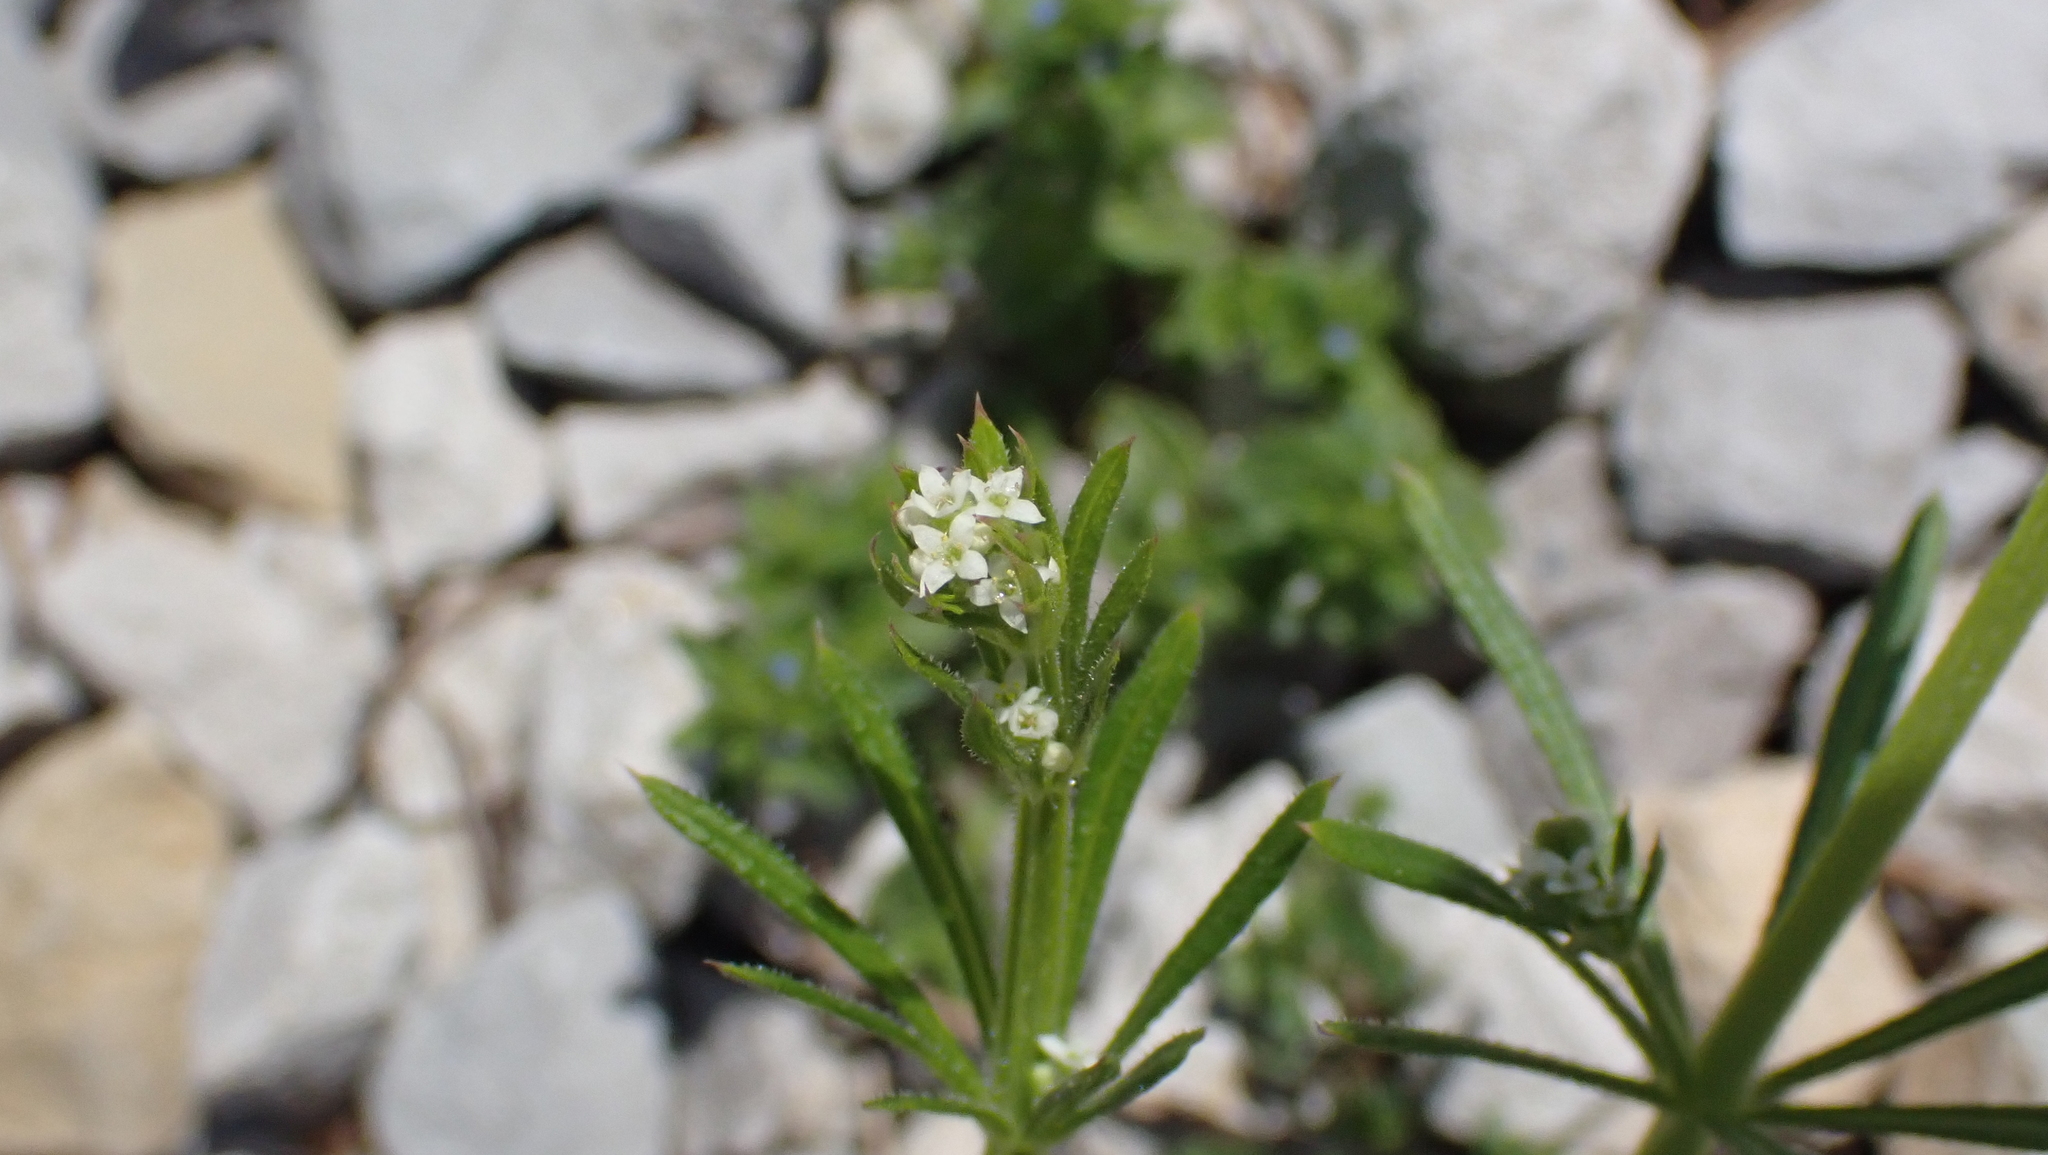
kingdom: Plantae
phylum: Tracheophyta
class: Magnoliopsida
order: Gentianales
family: Rubiaceae
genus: Galium
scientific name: Galium aparine
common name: Cleavers
